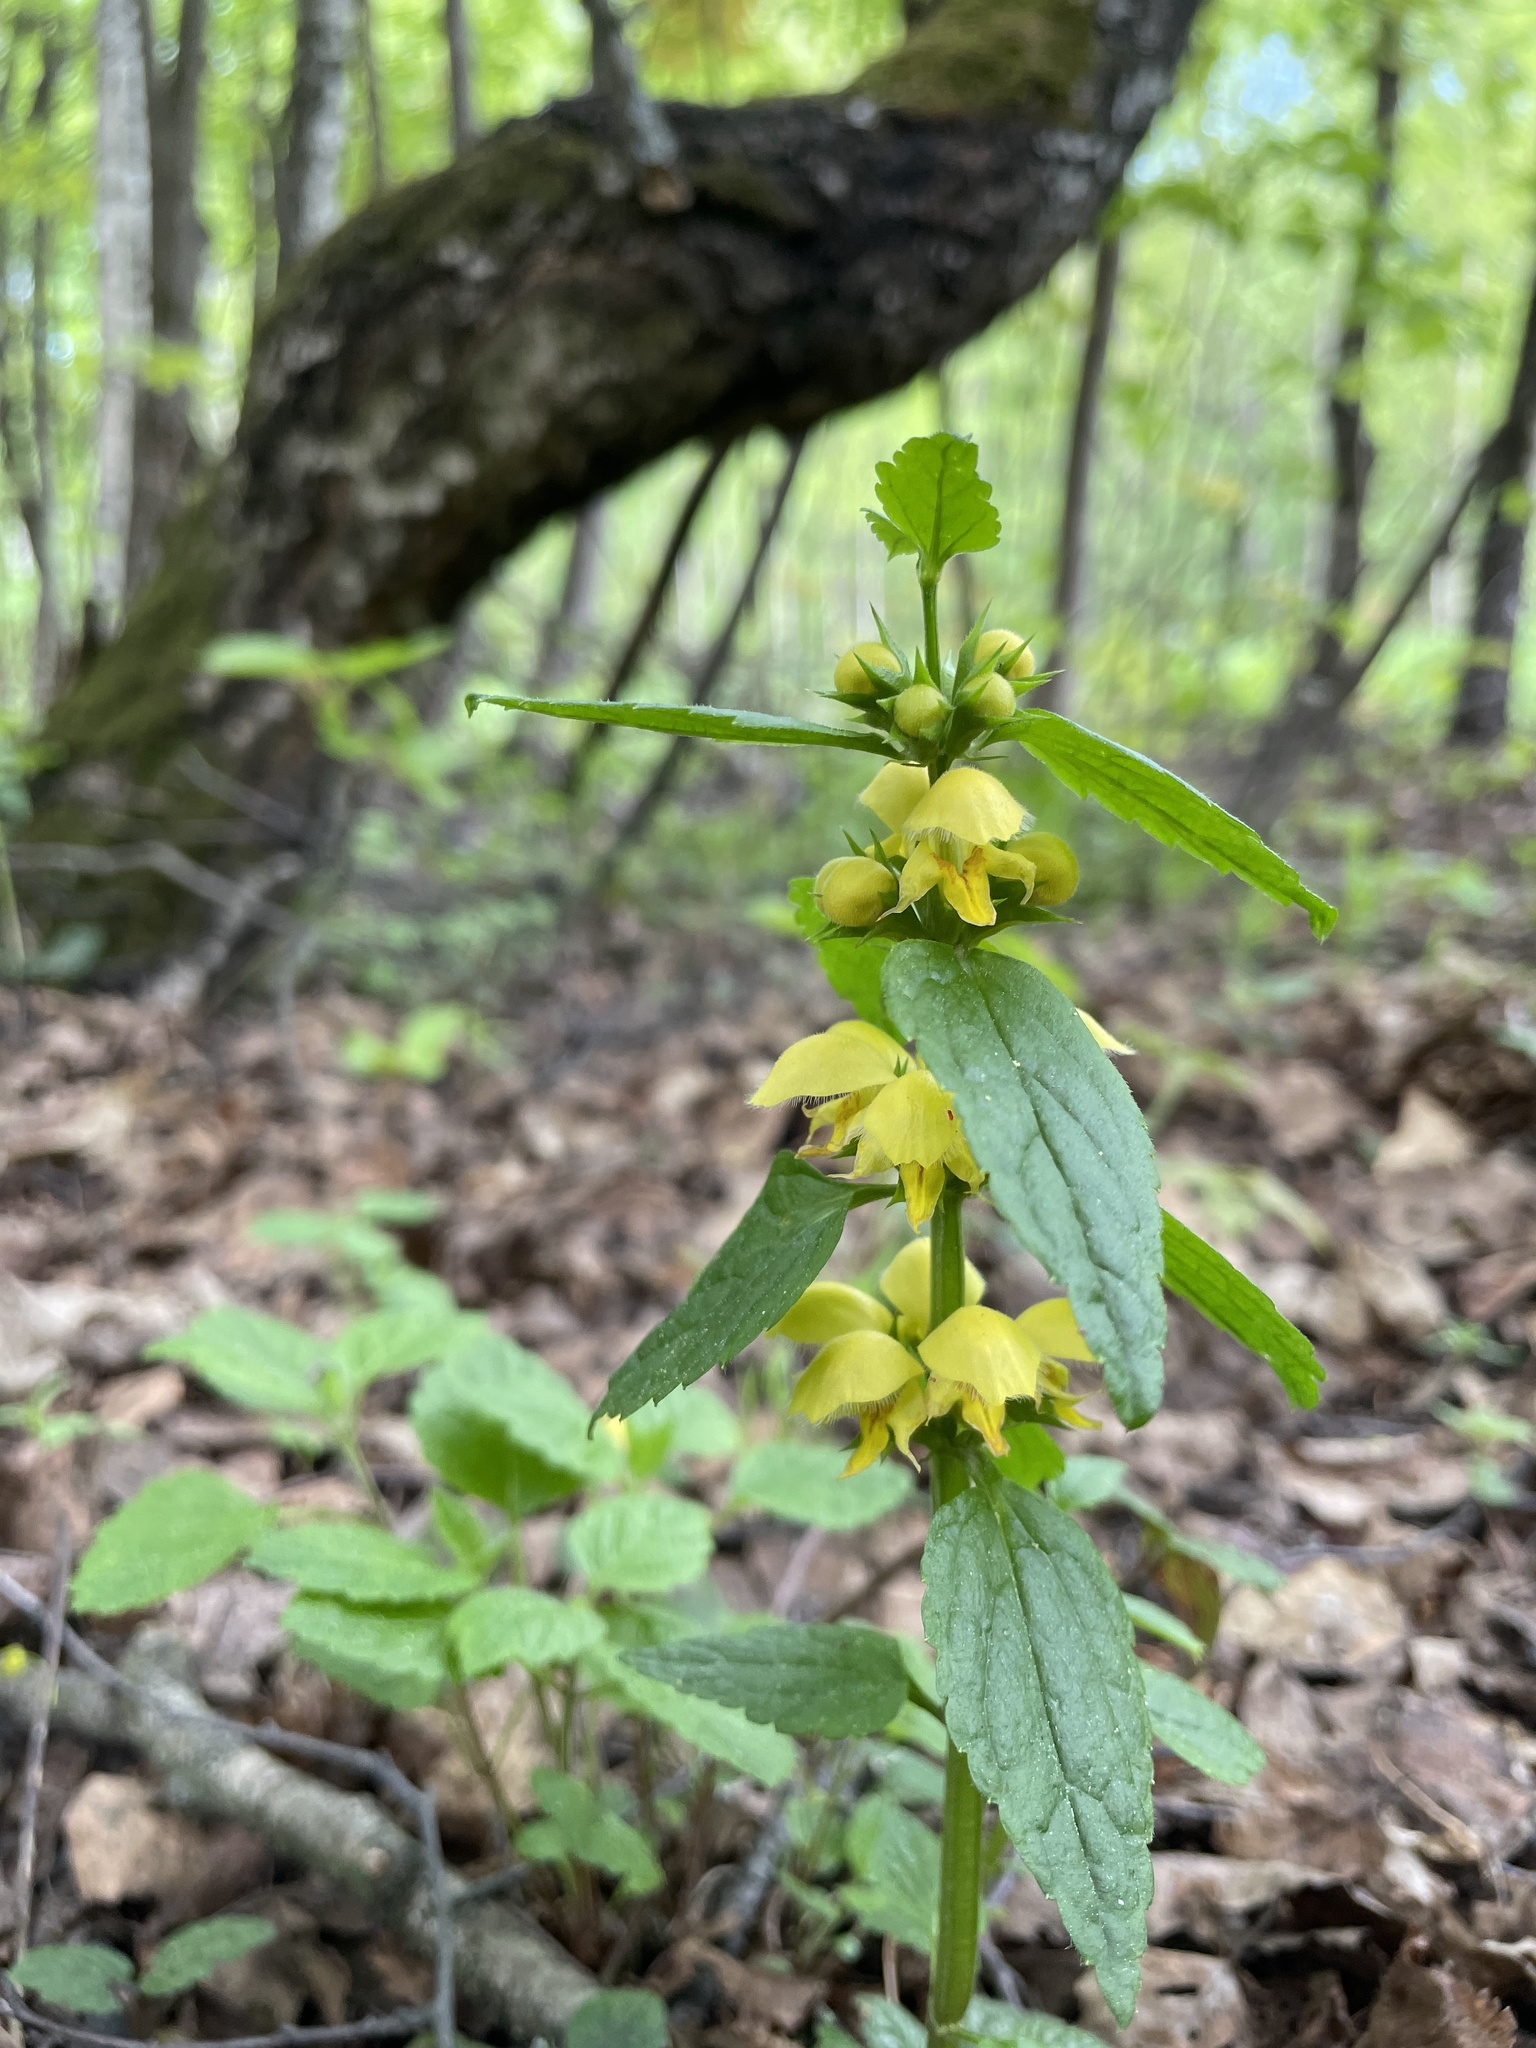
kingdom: Plantae
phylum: Tracheophyta
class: Magnoliopsida
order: Lamiales
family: Lamiaceae
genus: Lamium
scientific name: Lamium galeobdolon
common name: Yellow archangel
